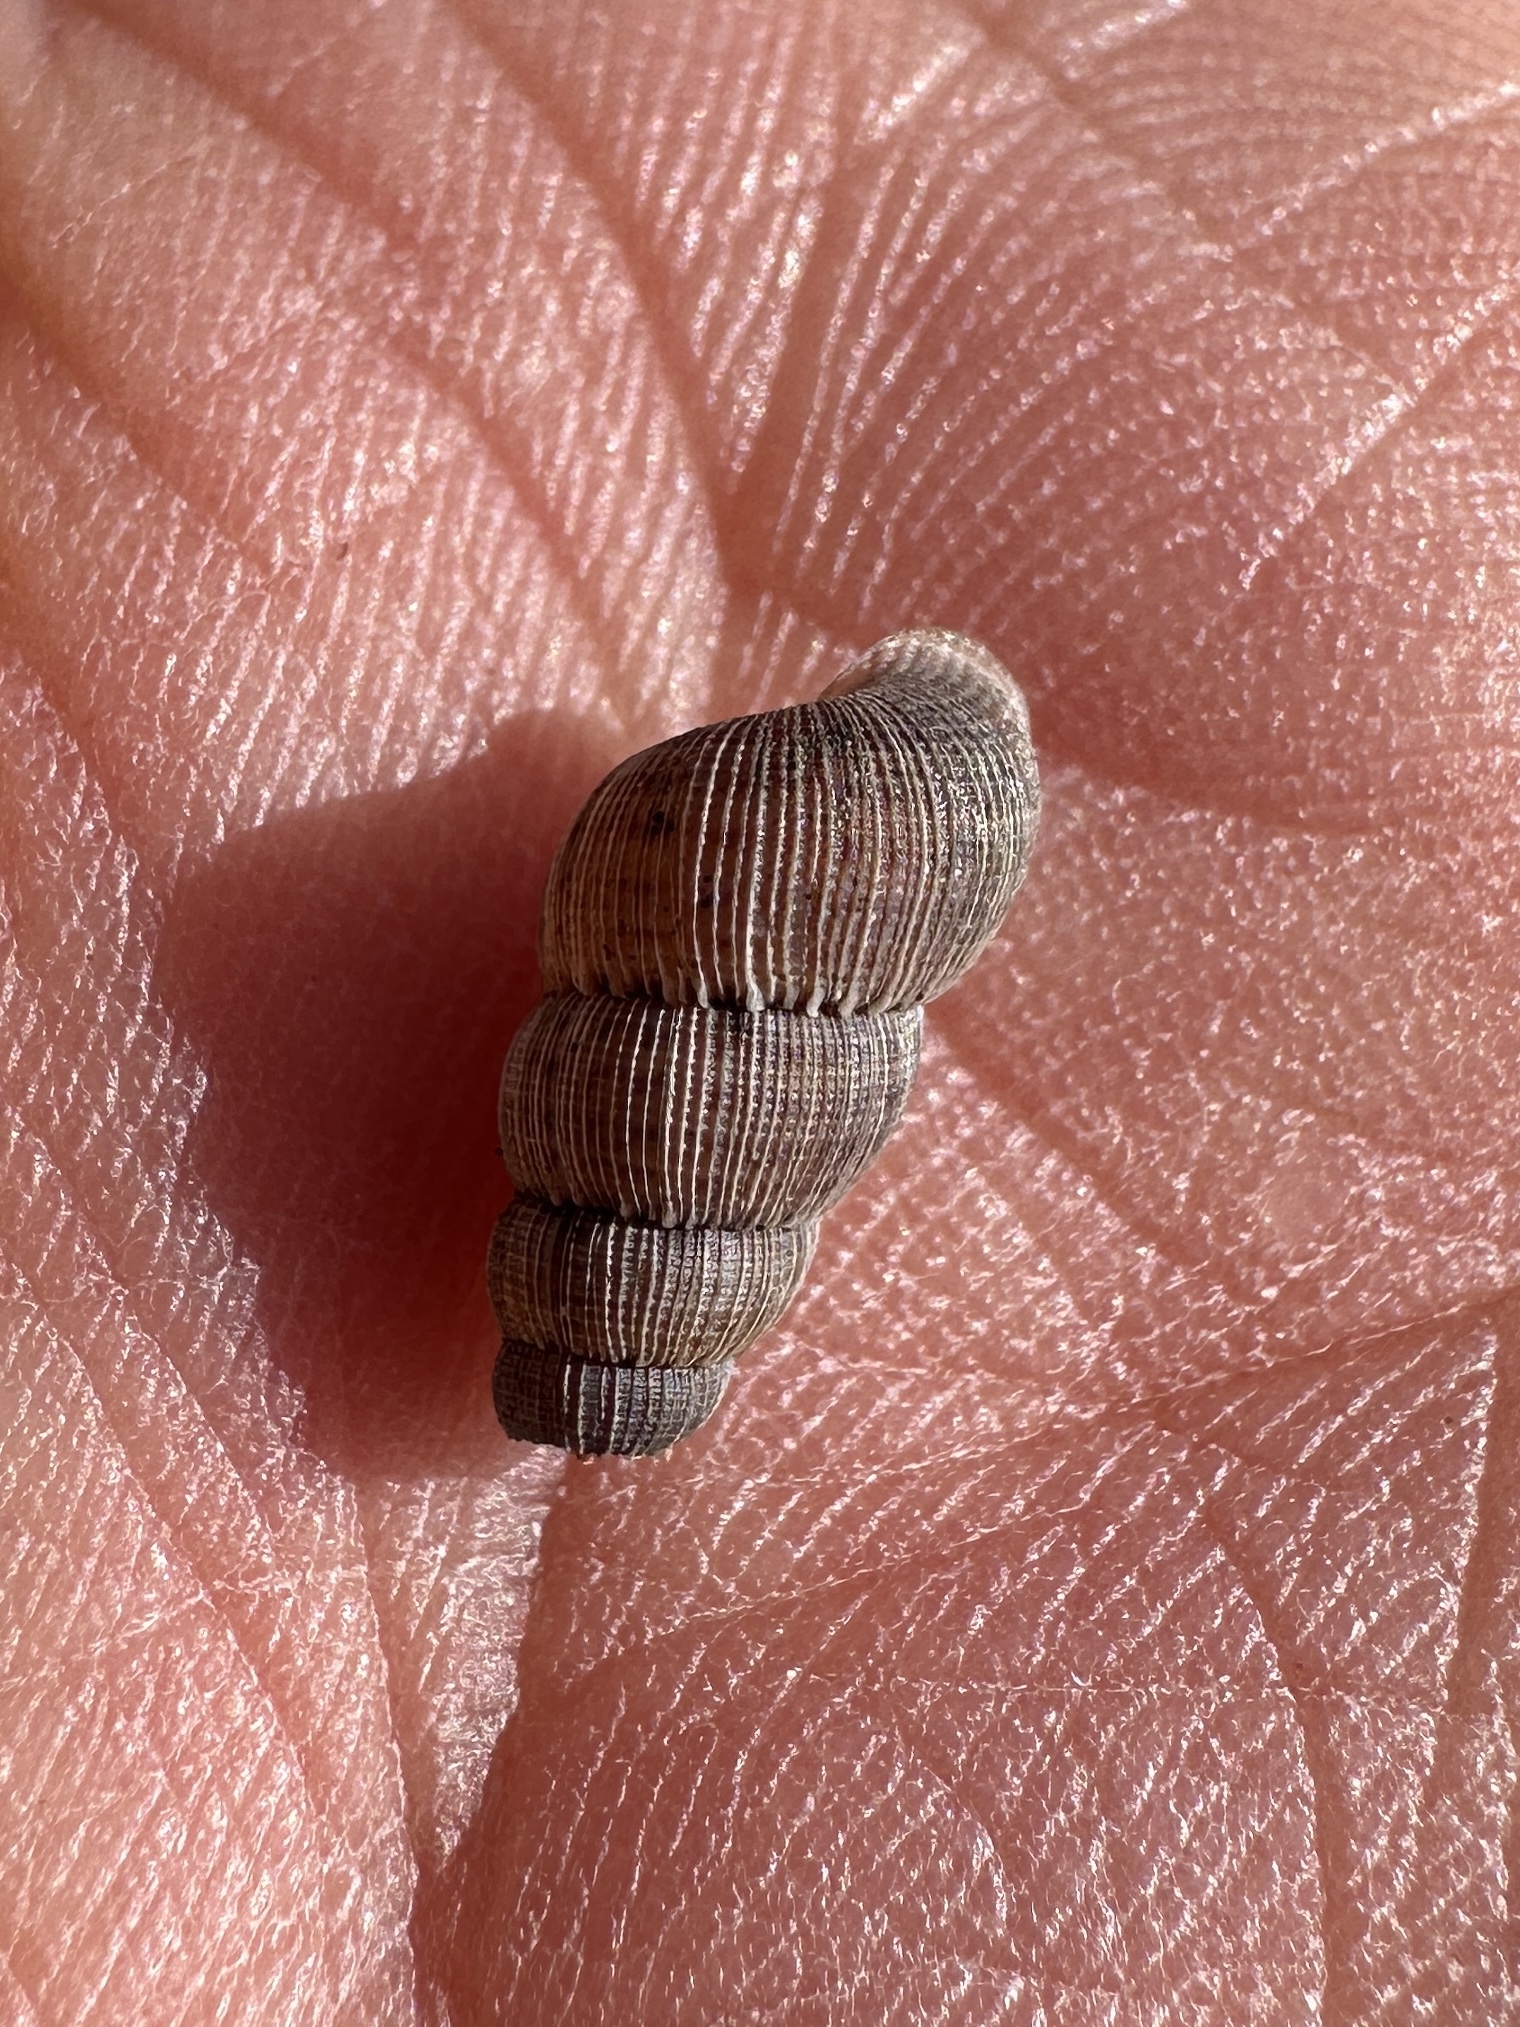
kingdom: Animalia
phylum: Mollusca
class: Gastropoda
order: Littorinimorpha
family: Annulariidae
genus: Parachondria
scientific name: Parachondria dentata
